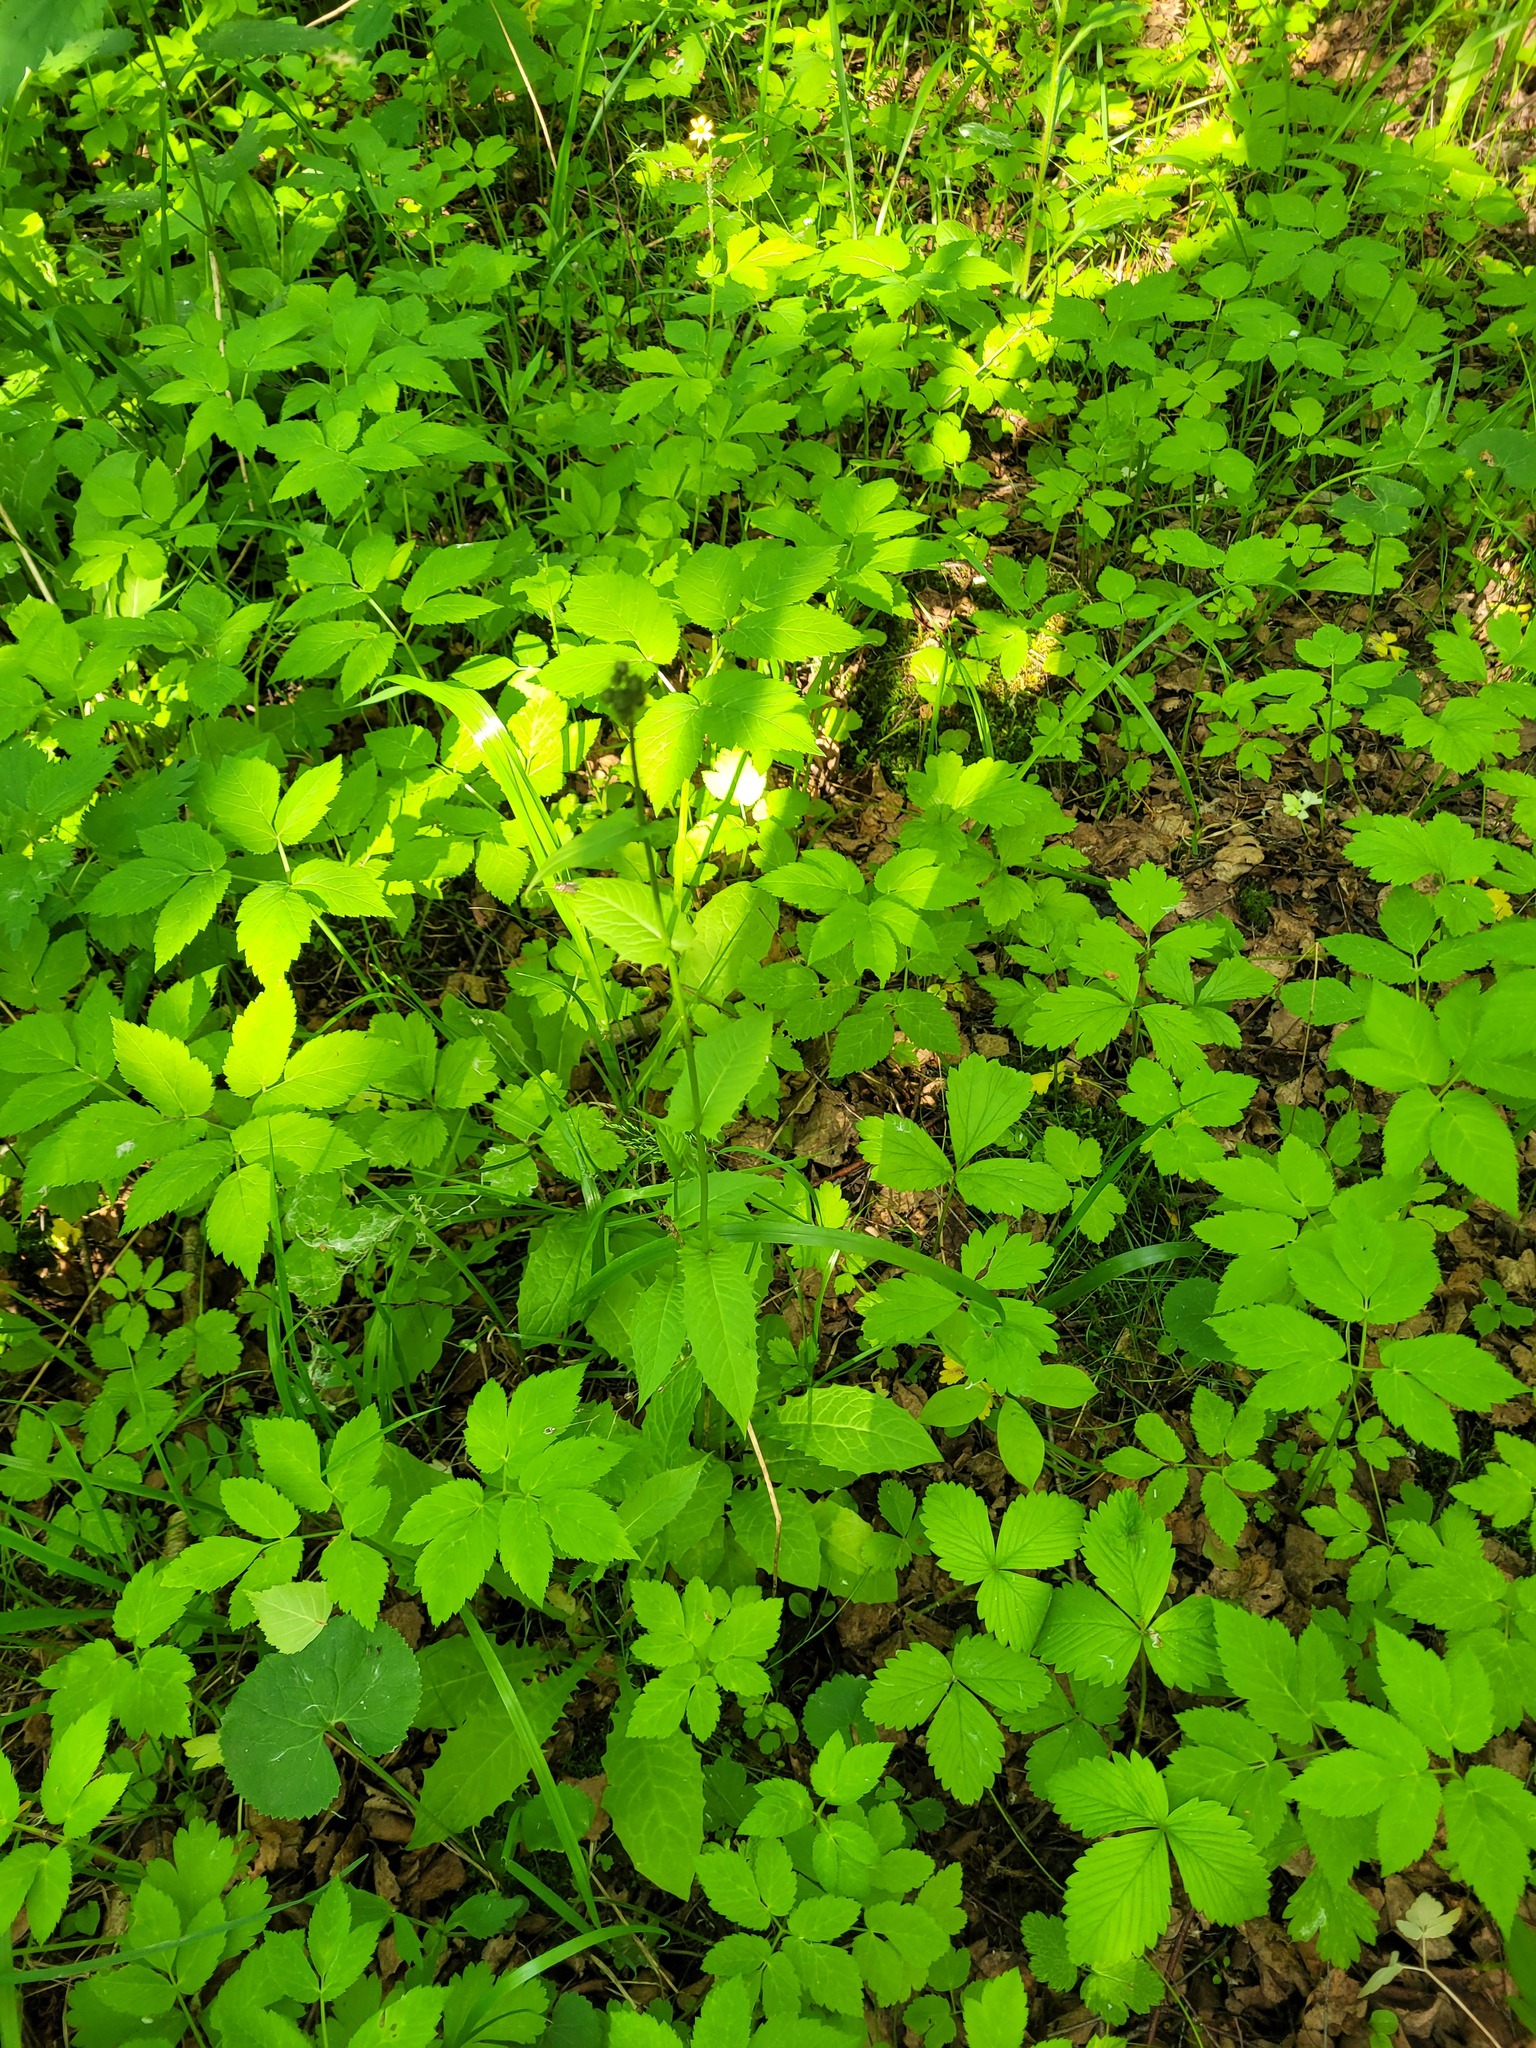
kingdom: Plantae
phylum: Tracheophyta
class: Magnoliopsida
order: Asterales
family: Asteraceae
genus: Crepis
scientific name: Crepis paludosa
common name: Marsh hawk's-beard
